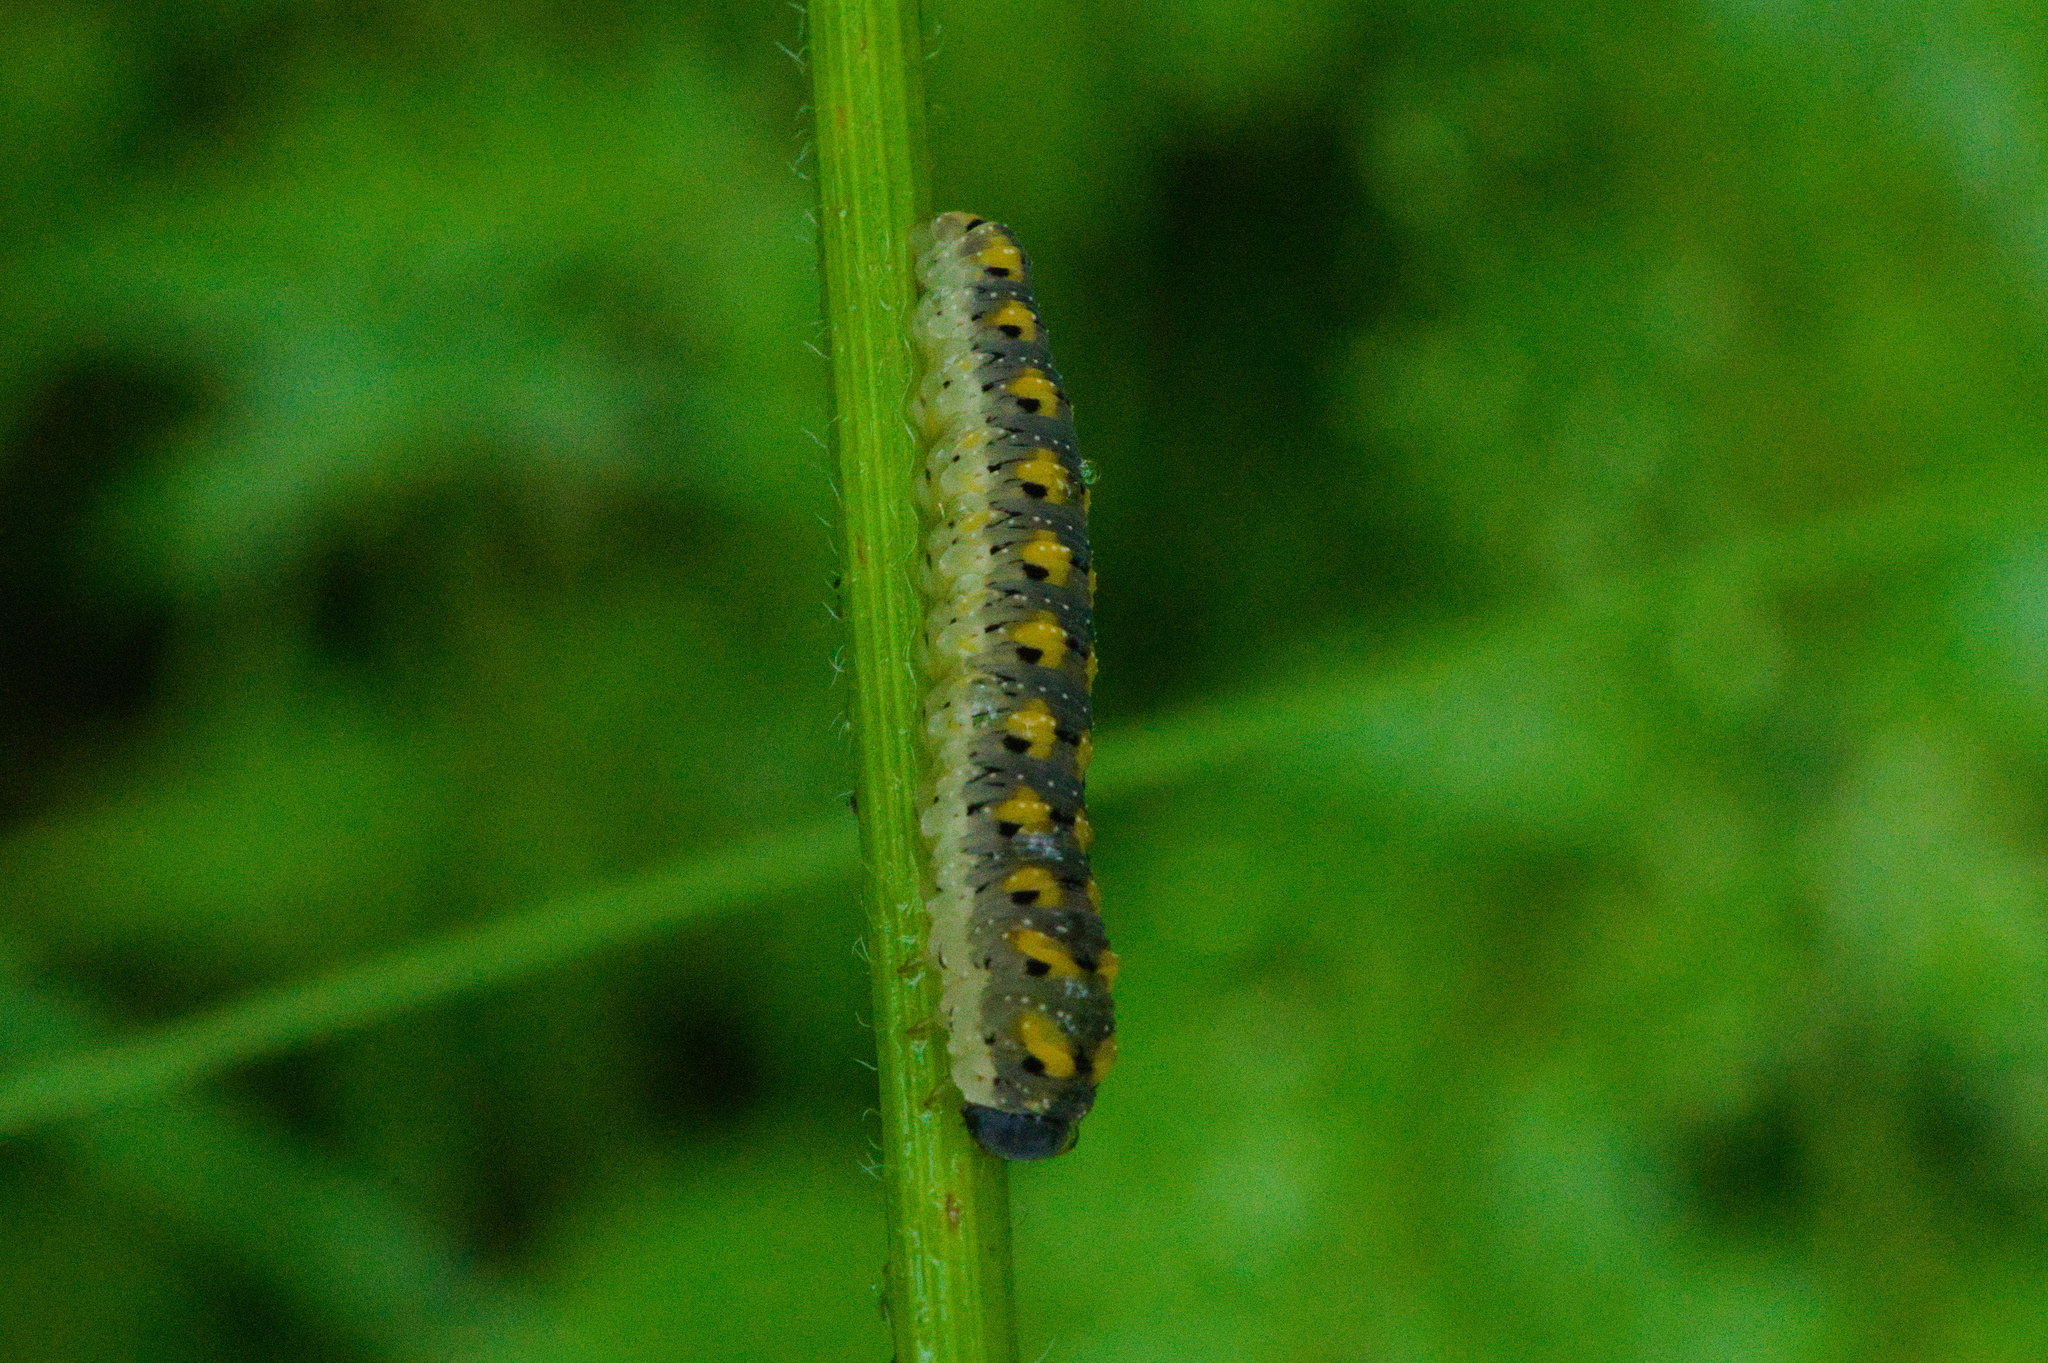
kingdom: Animalia
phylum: Arthropoda
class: Insecta
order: Hymenoptera
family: Tenthredinidae
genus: Tenthredo
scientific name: Tenthredo crassa
